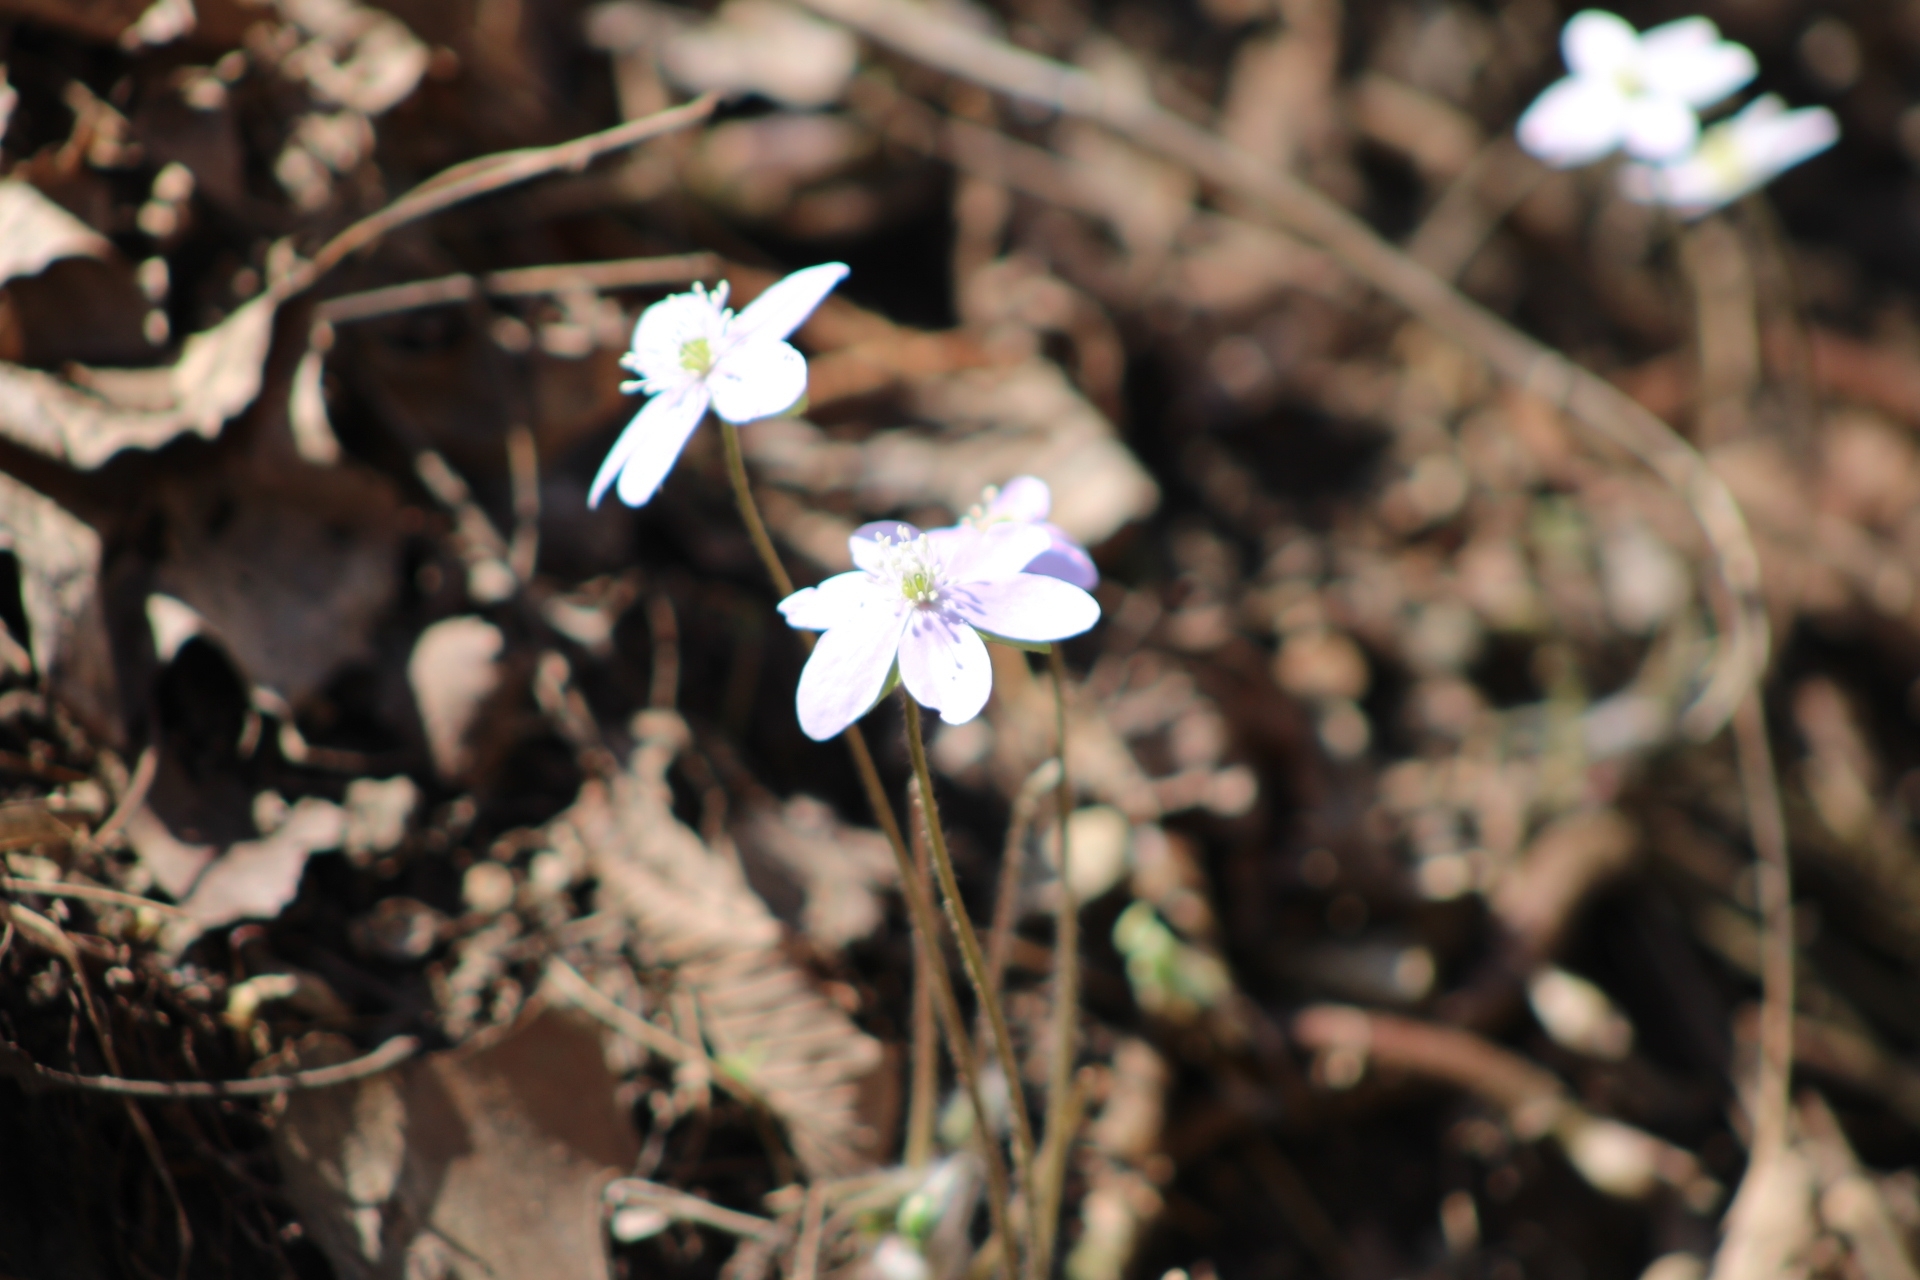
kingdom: Plantae
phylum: Tracheophyta
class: Magnoliopsida
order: Ranunculales
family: Ranunculaceae
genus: Hepatica
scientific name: Hepatica acutiloba
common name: Sharp-lobed hepatica
